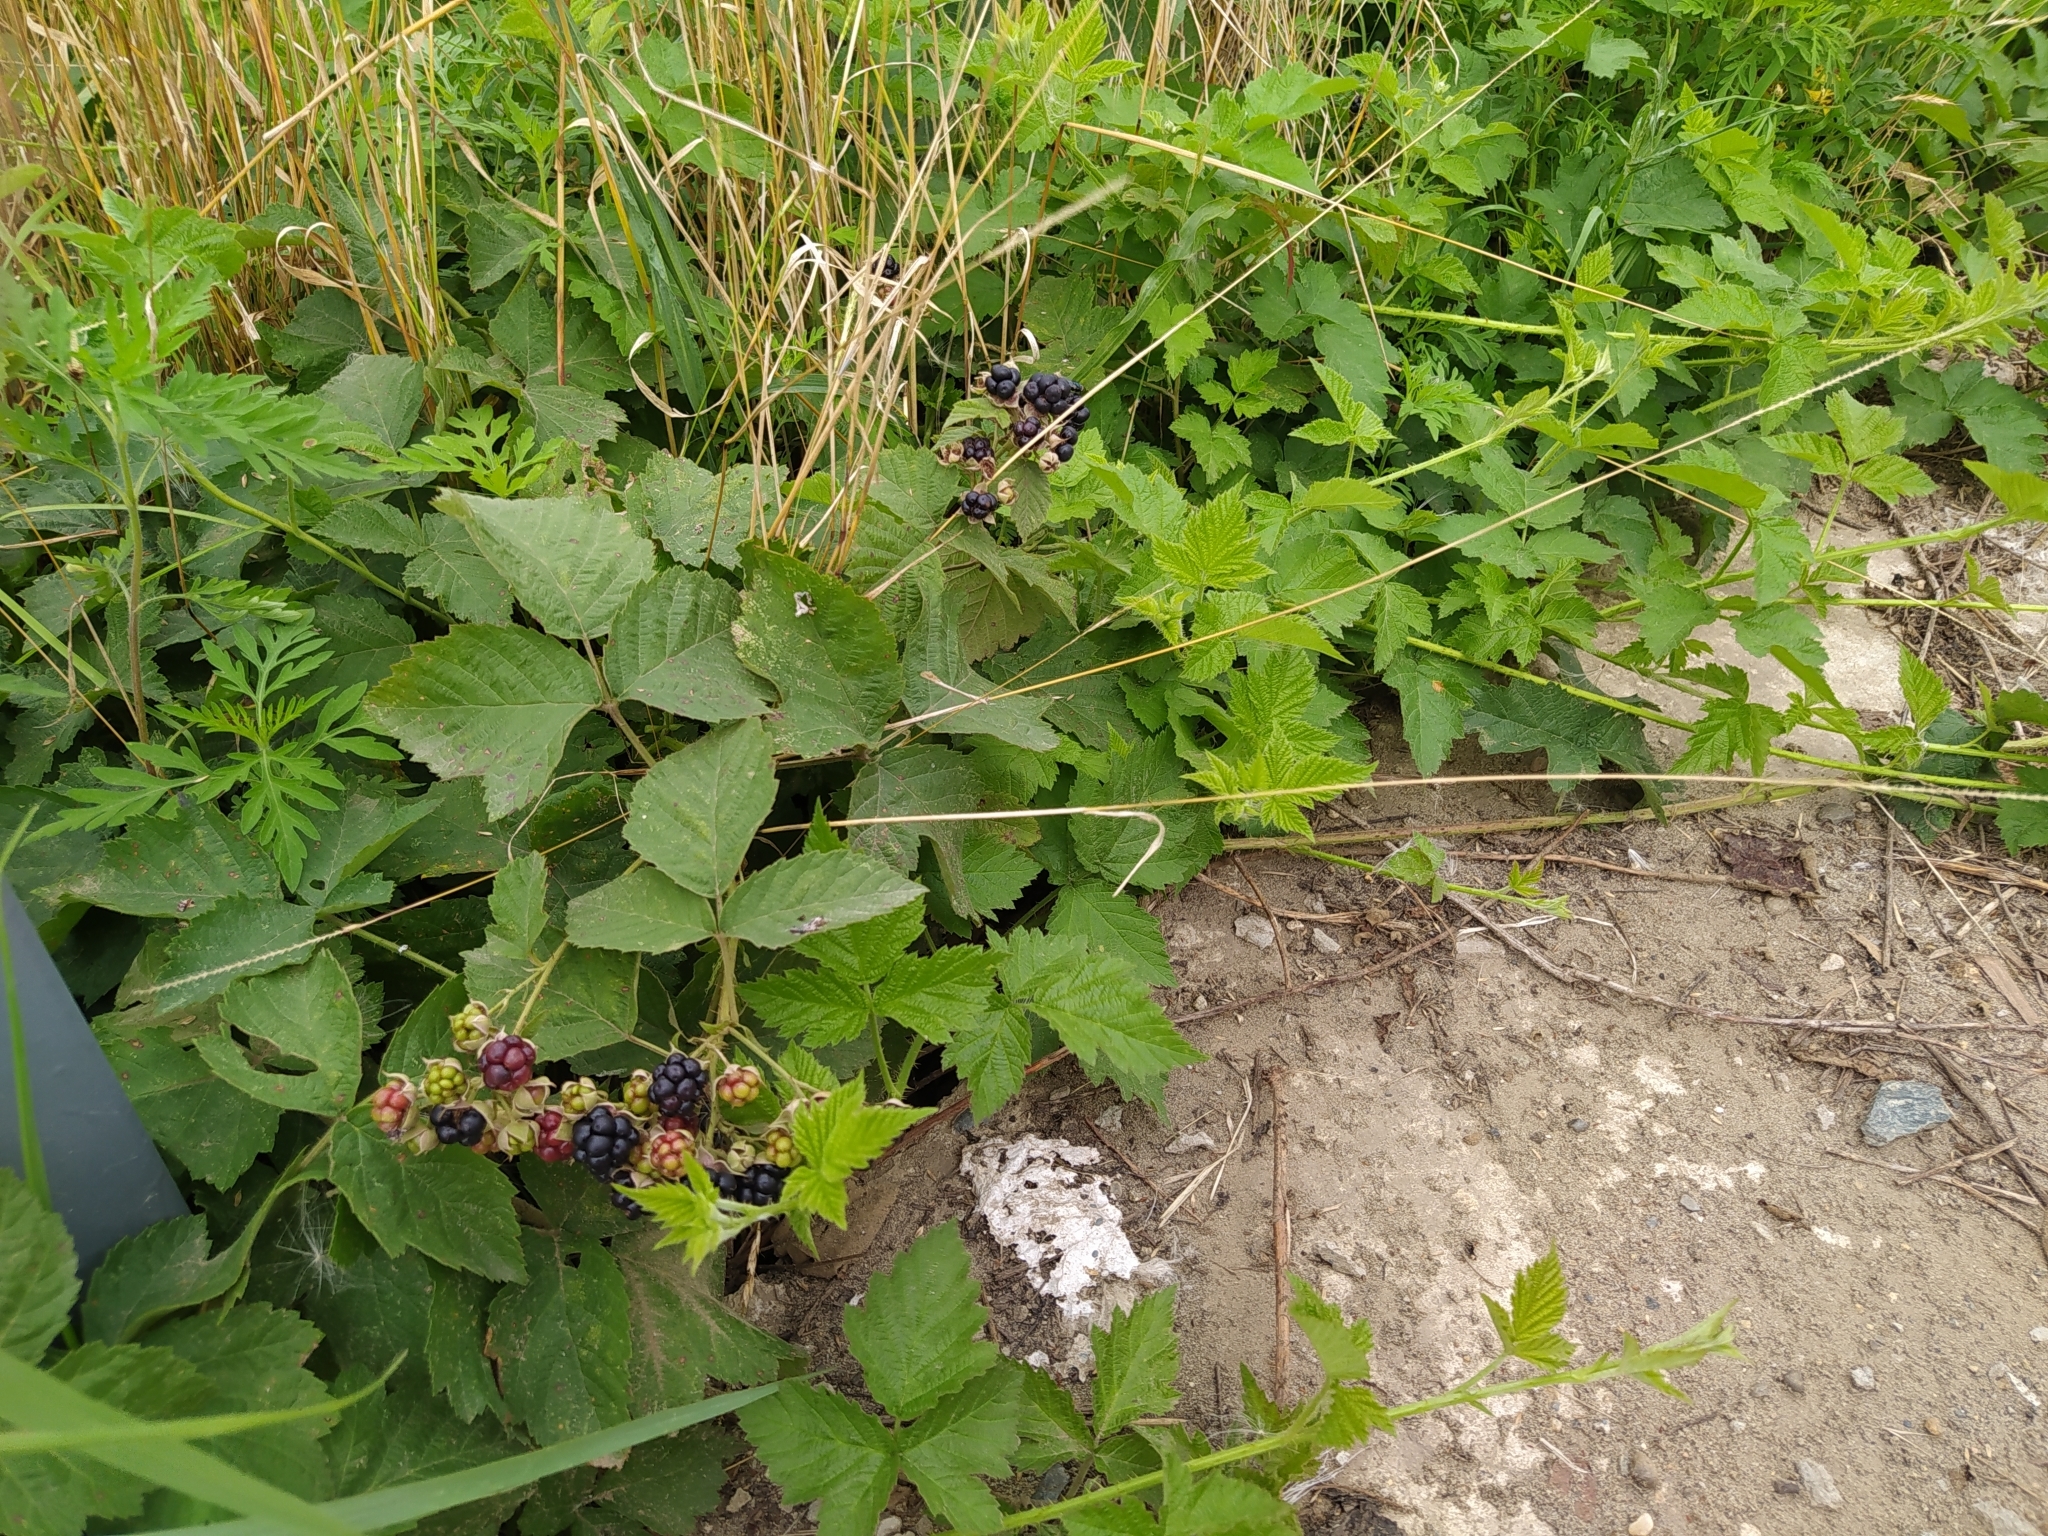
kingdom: Plantae
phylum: Tracheophyta
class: Magnoliopsida
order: Rosales
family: Rosaceae
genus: Rubus
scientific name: Rubus caesius
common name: Dewberry
